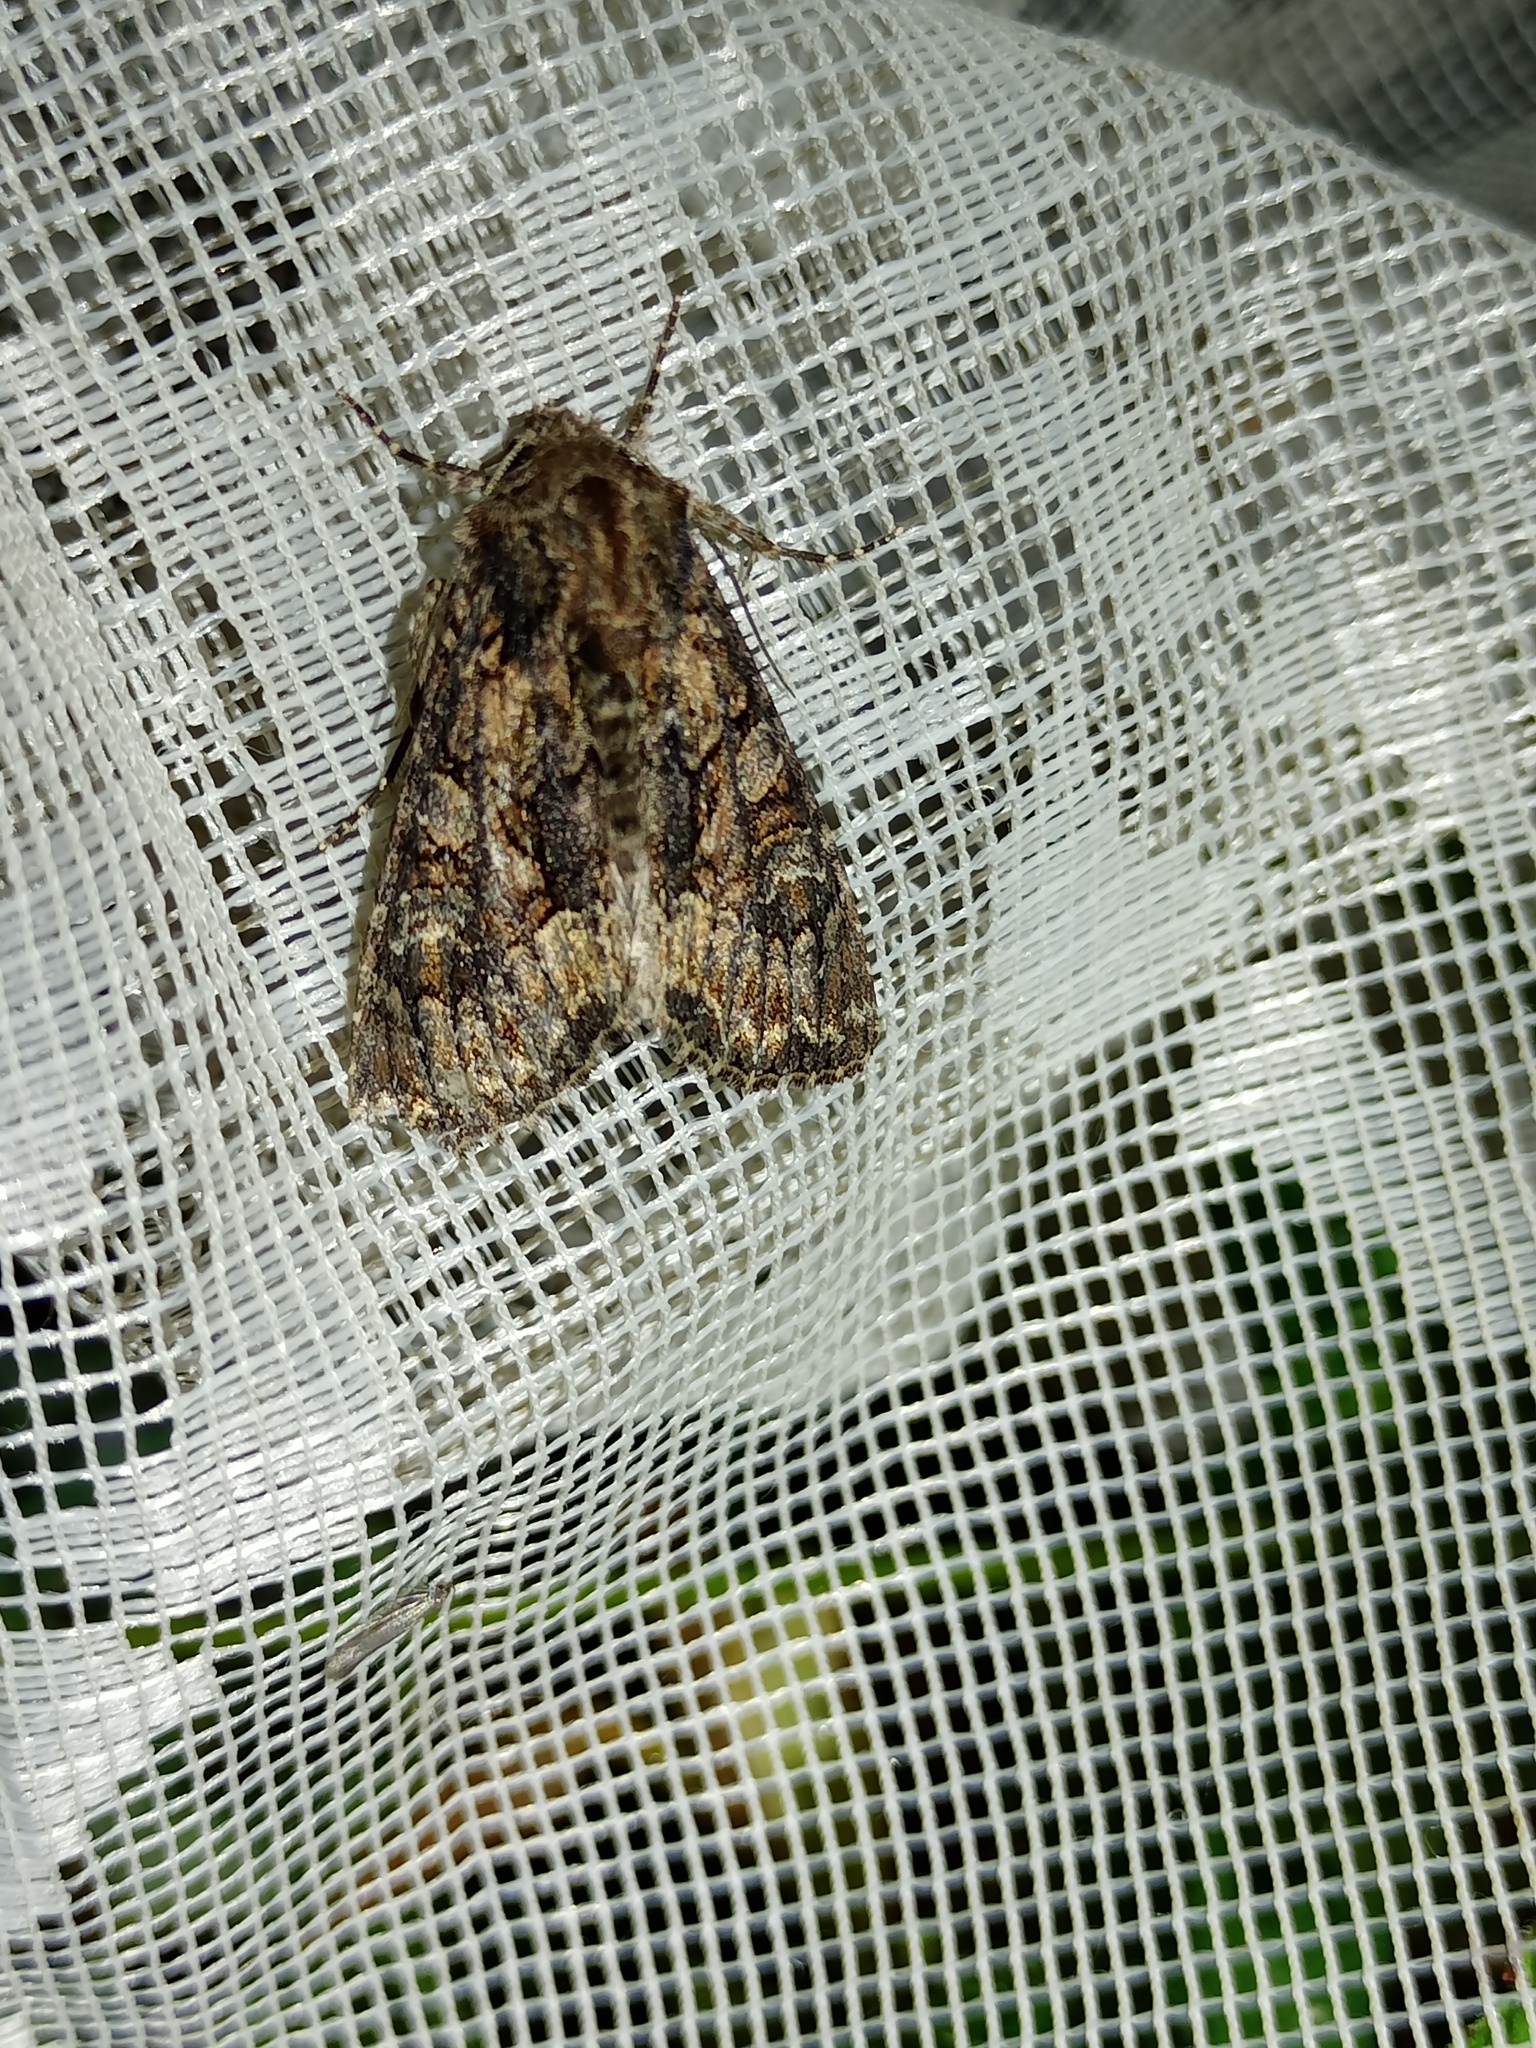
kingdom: Animalia
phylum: Arthropoda
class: Insecta
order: Lepidoptera
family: Noctuidae
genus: Mniotype
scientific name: Mniotype adusta
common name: Dark brocade
